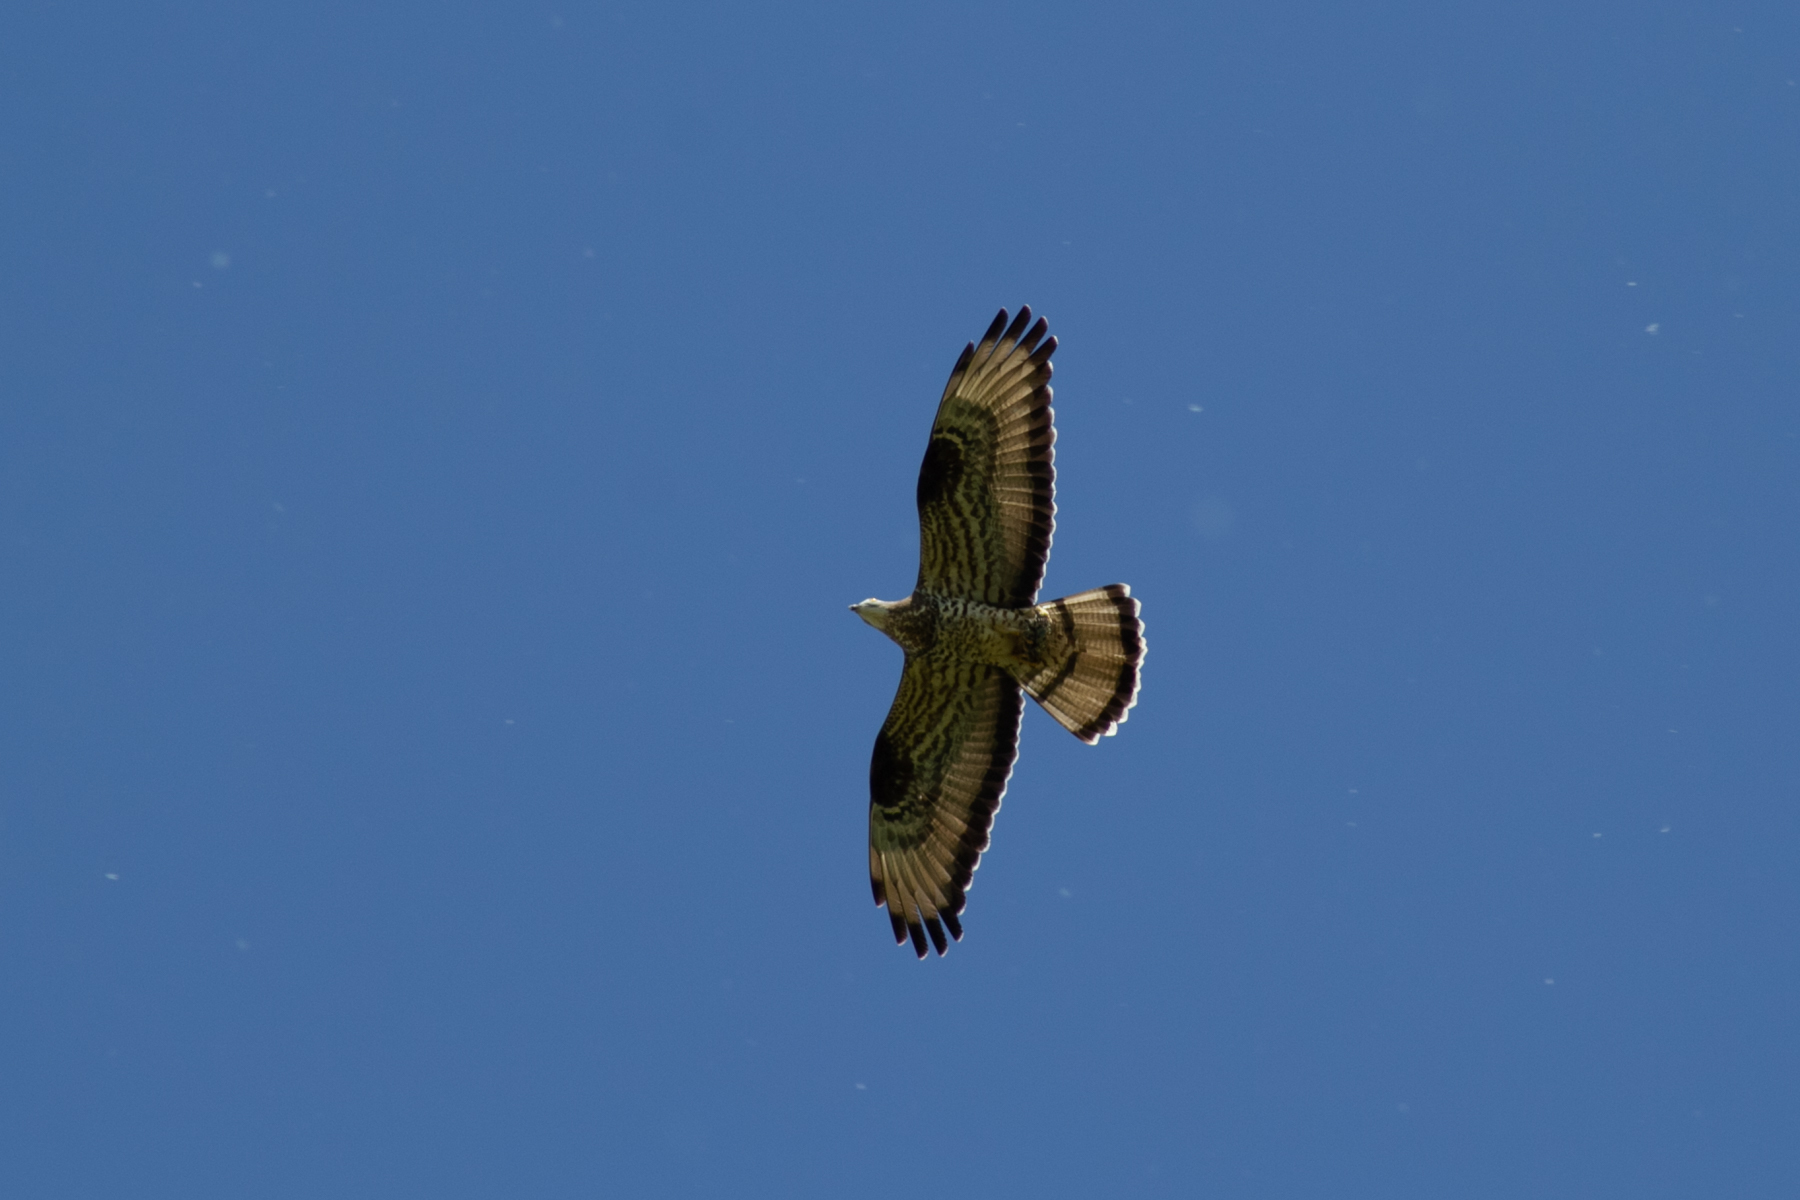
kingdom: Animalia
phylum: Chordata
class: Aves
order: Accipitriformes
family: Accipitridae
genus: Pernis
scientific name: Pernis apivorus
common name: European honey buzzard
